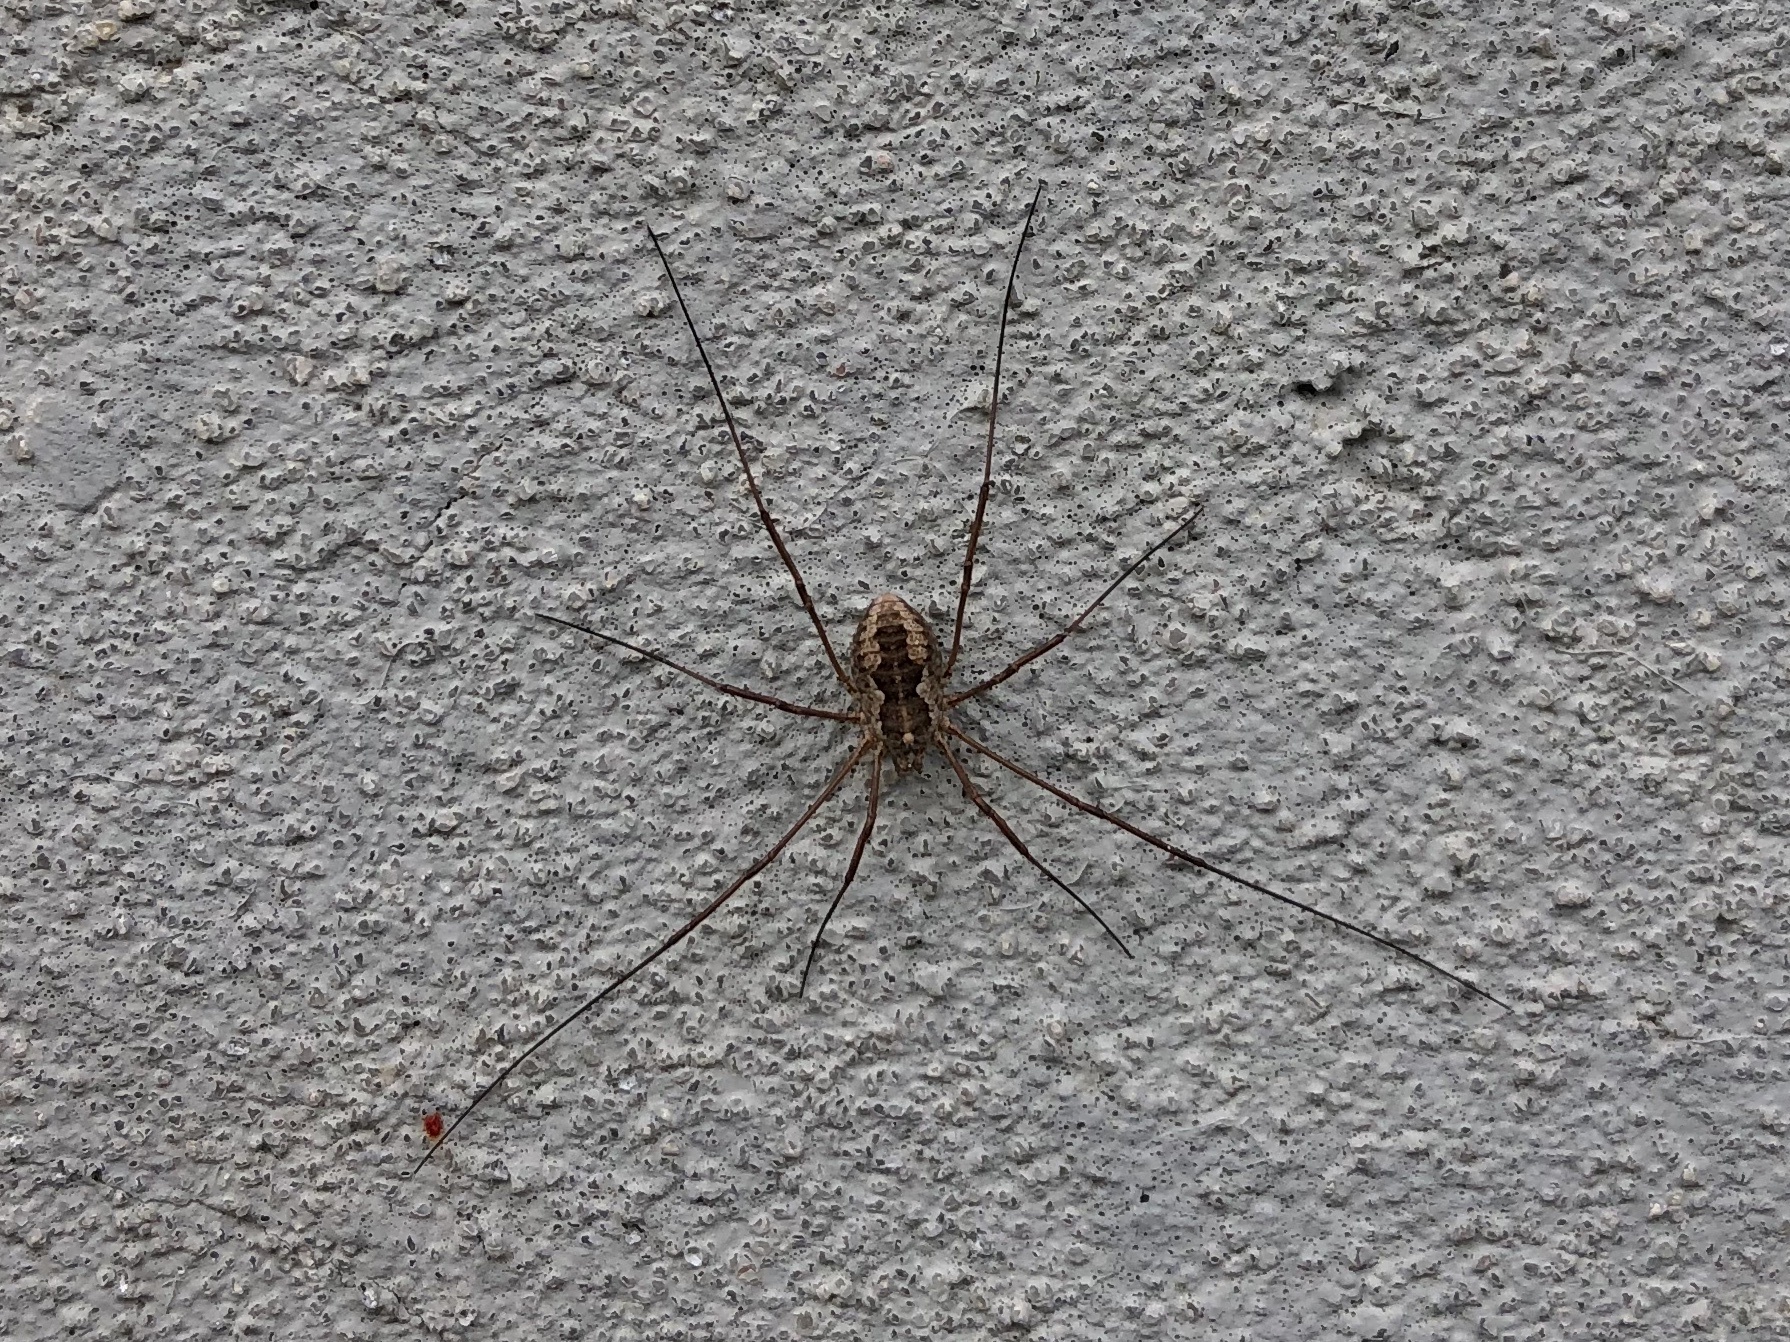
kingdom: Animalia
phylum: Arthropoda
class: Arachnida
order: Opiliones
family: Phalangiidae
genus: Phalangium
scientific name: Phalangium opilio
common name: Daddy longleg
